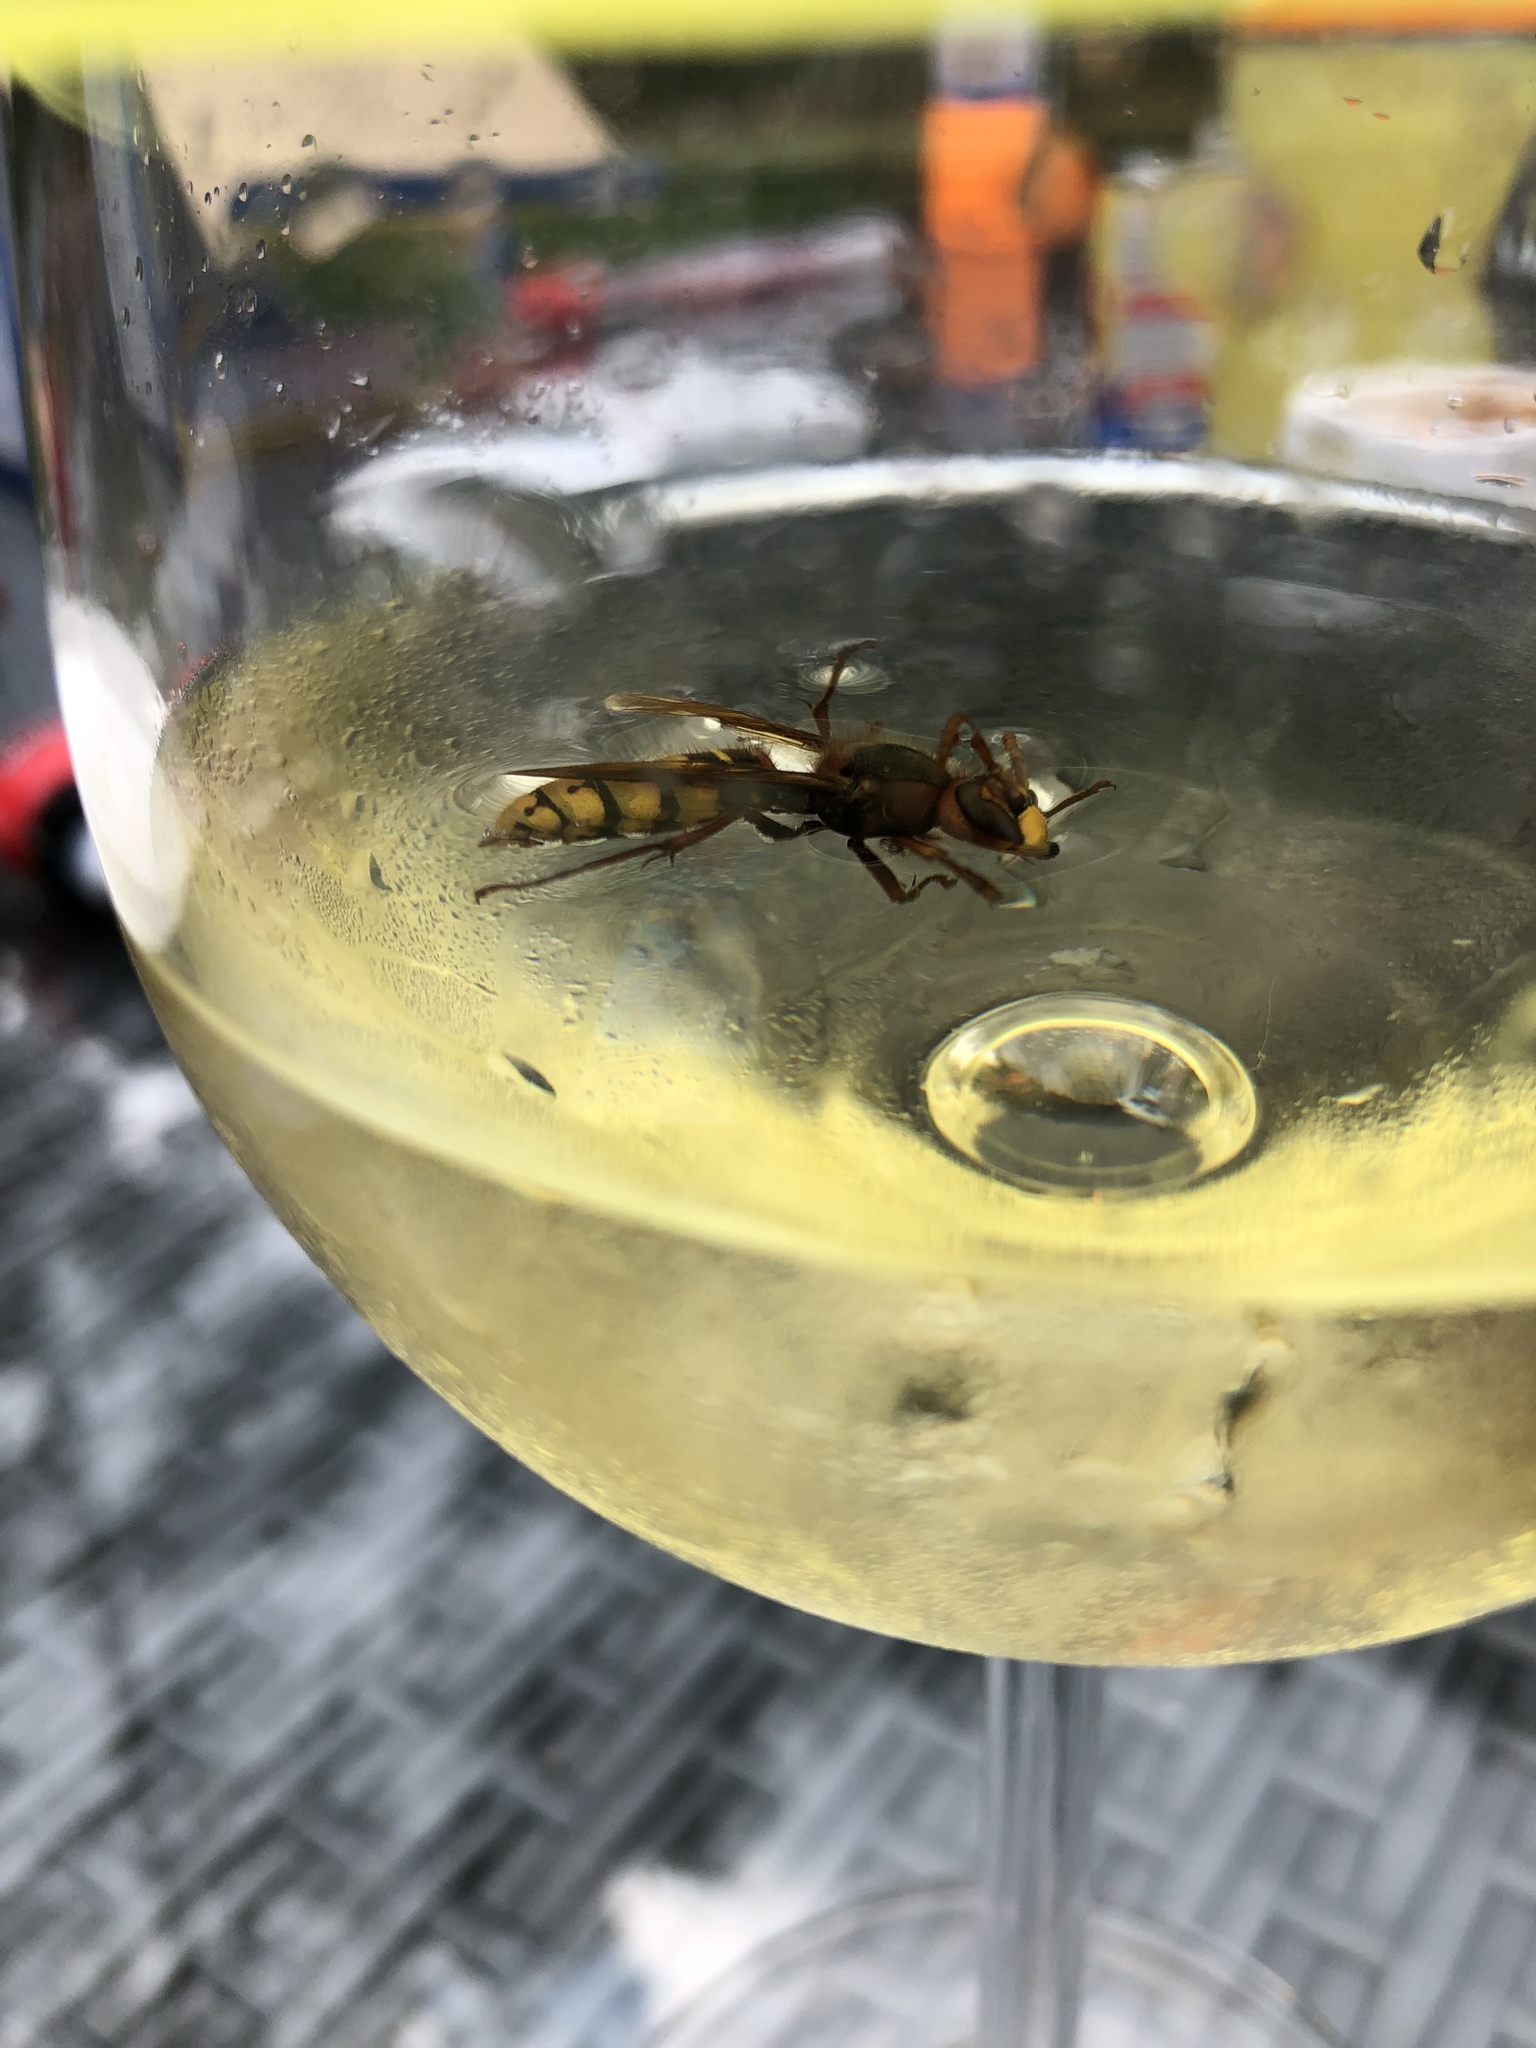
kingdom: Animalia
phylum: Arthropoda
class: Insecta
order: Hymenoptera
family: Vespidae
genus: Vespa
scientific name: Vespa crabro
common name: Hornet
